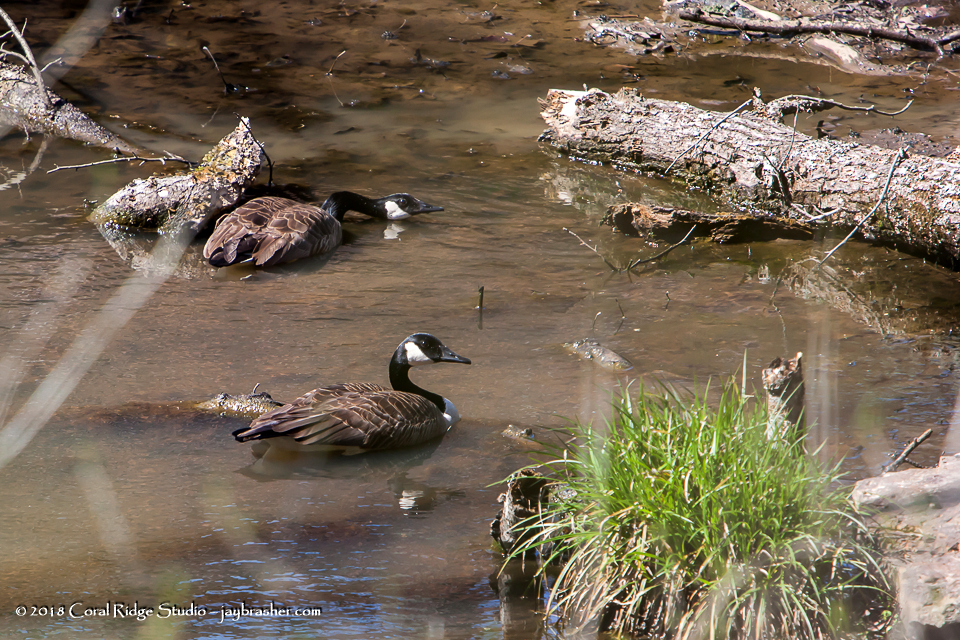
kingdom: Animalia
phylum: Chordata
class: Aves
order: Anseriformes
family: Anatidae
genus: Branta
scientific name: Branta canadensis
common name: Canada goose
